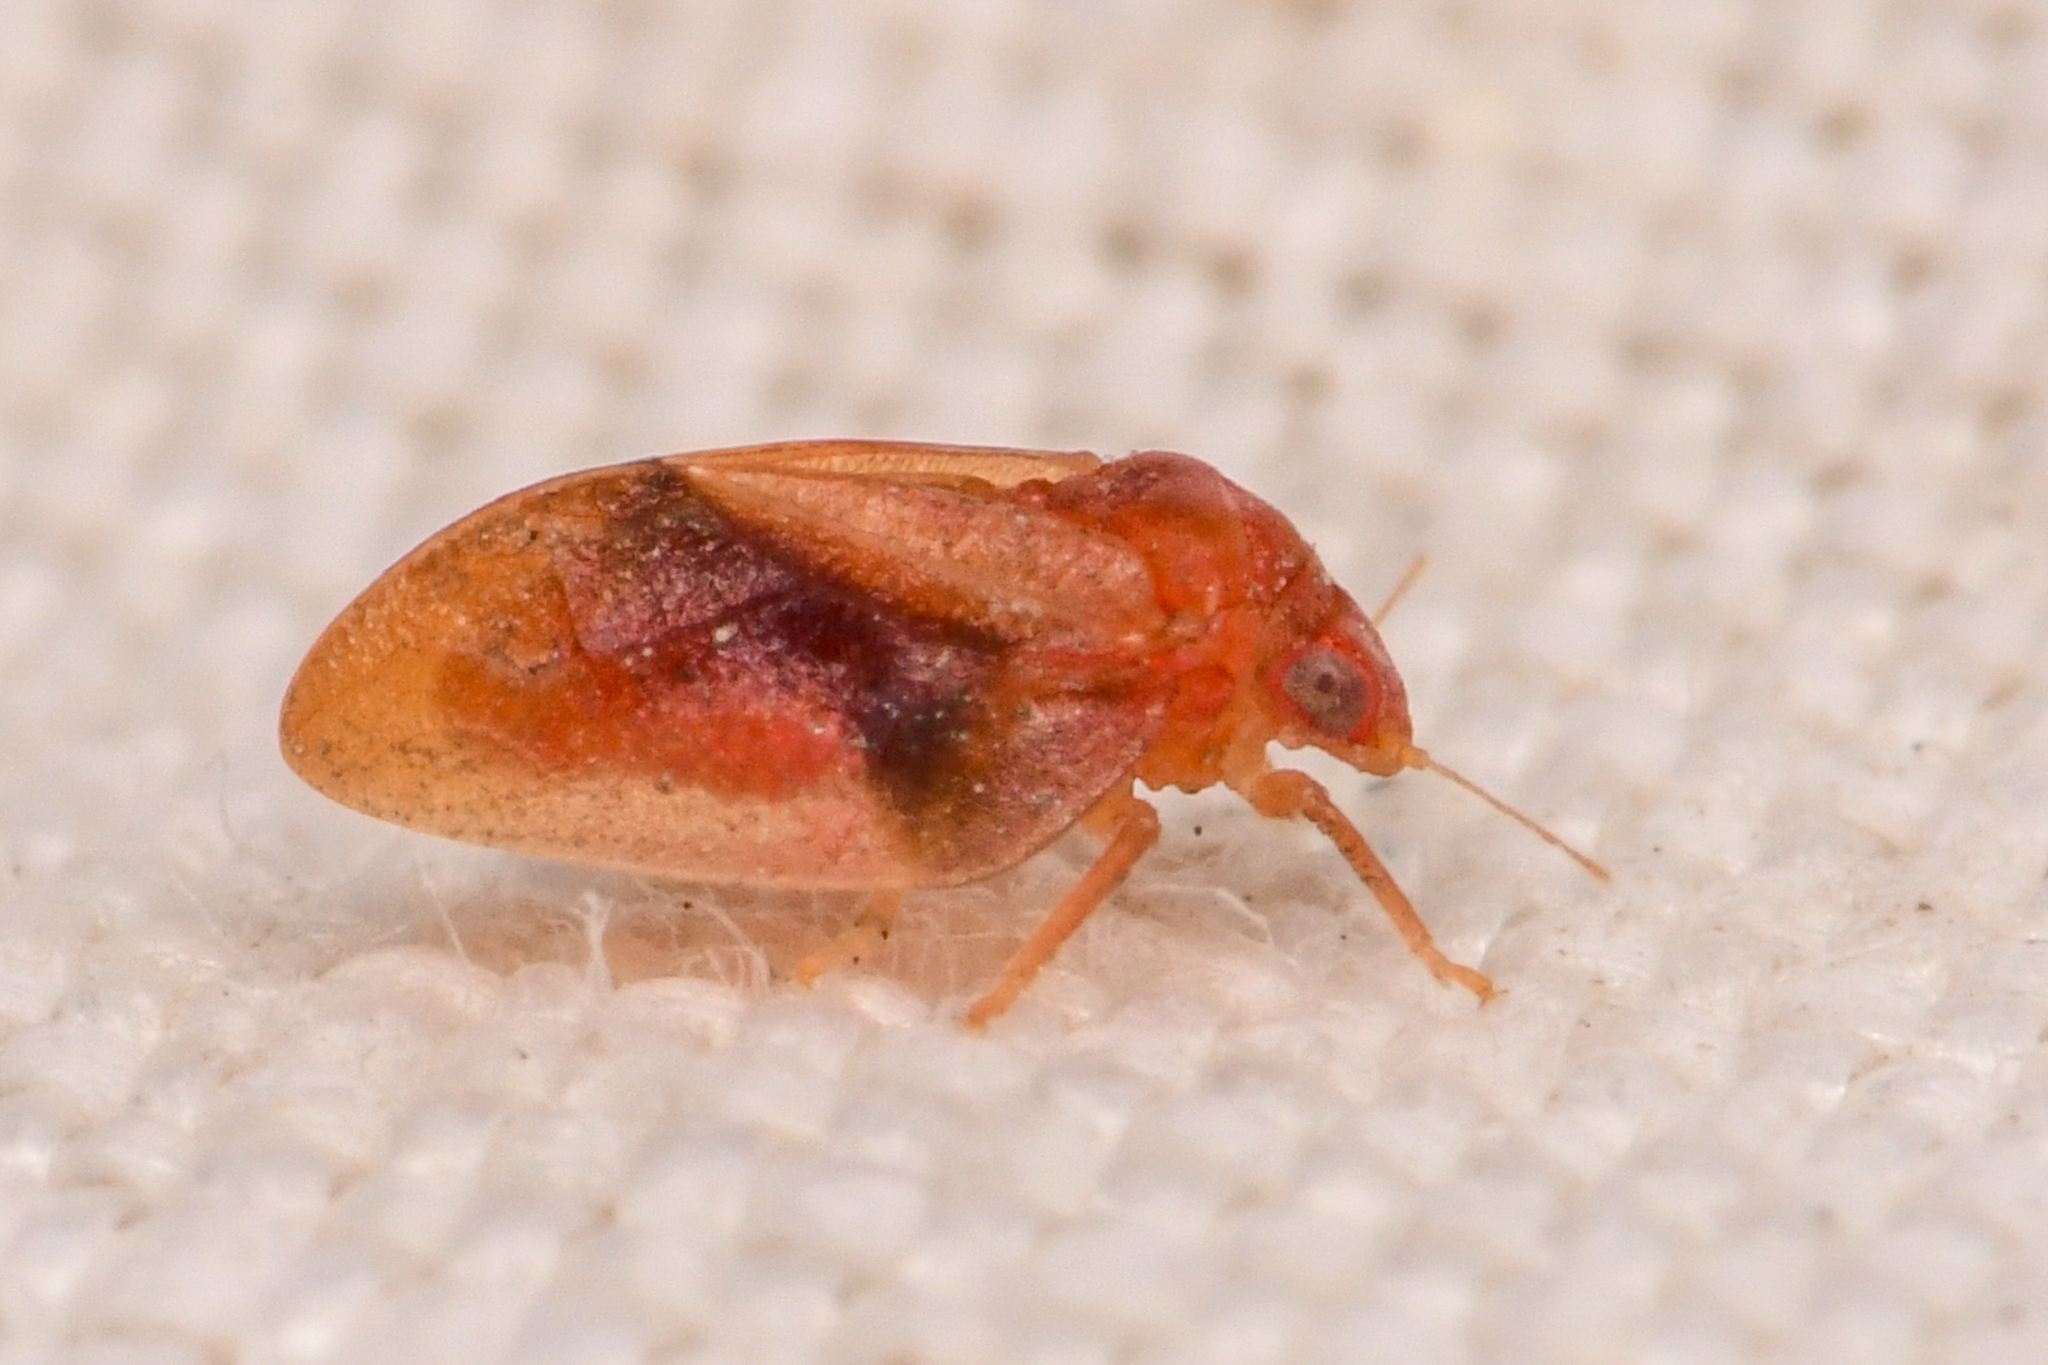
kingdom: Animalia
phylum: Arthropoda
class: Insecta
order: Hemiptera
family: Liviidae
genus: Neophyllura
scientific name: Neophyllura arbuti
